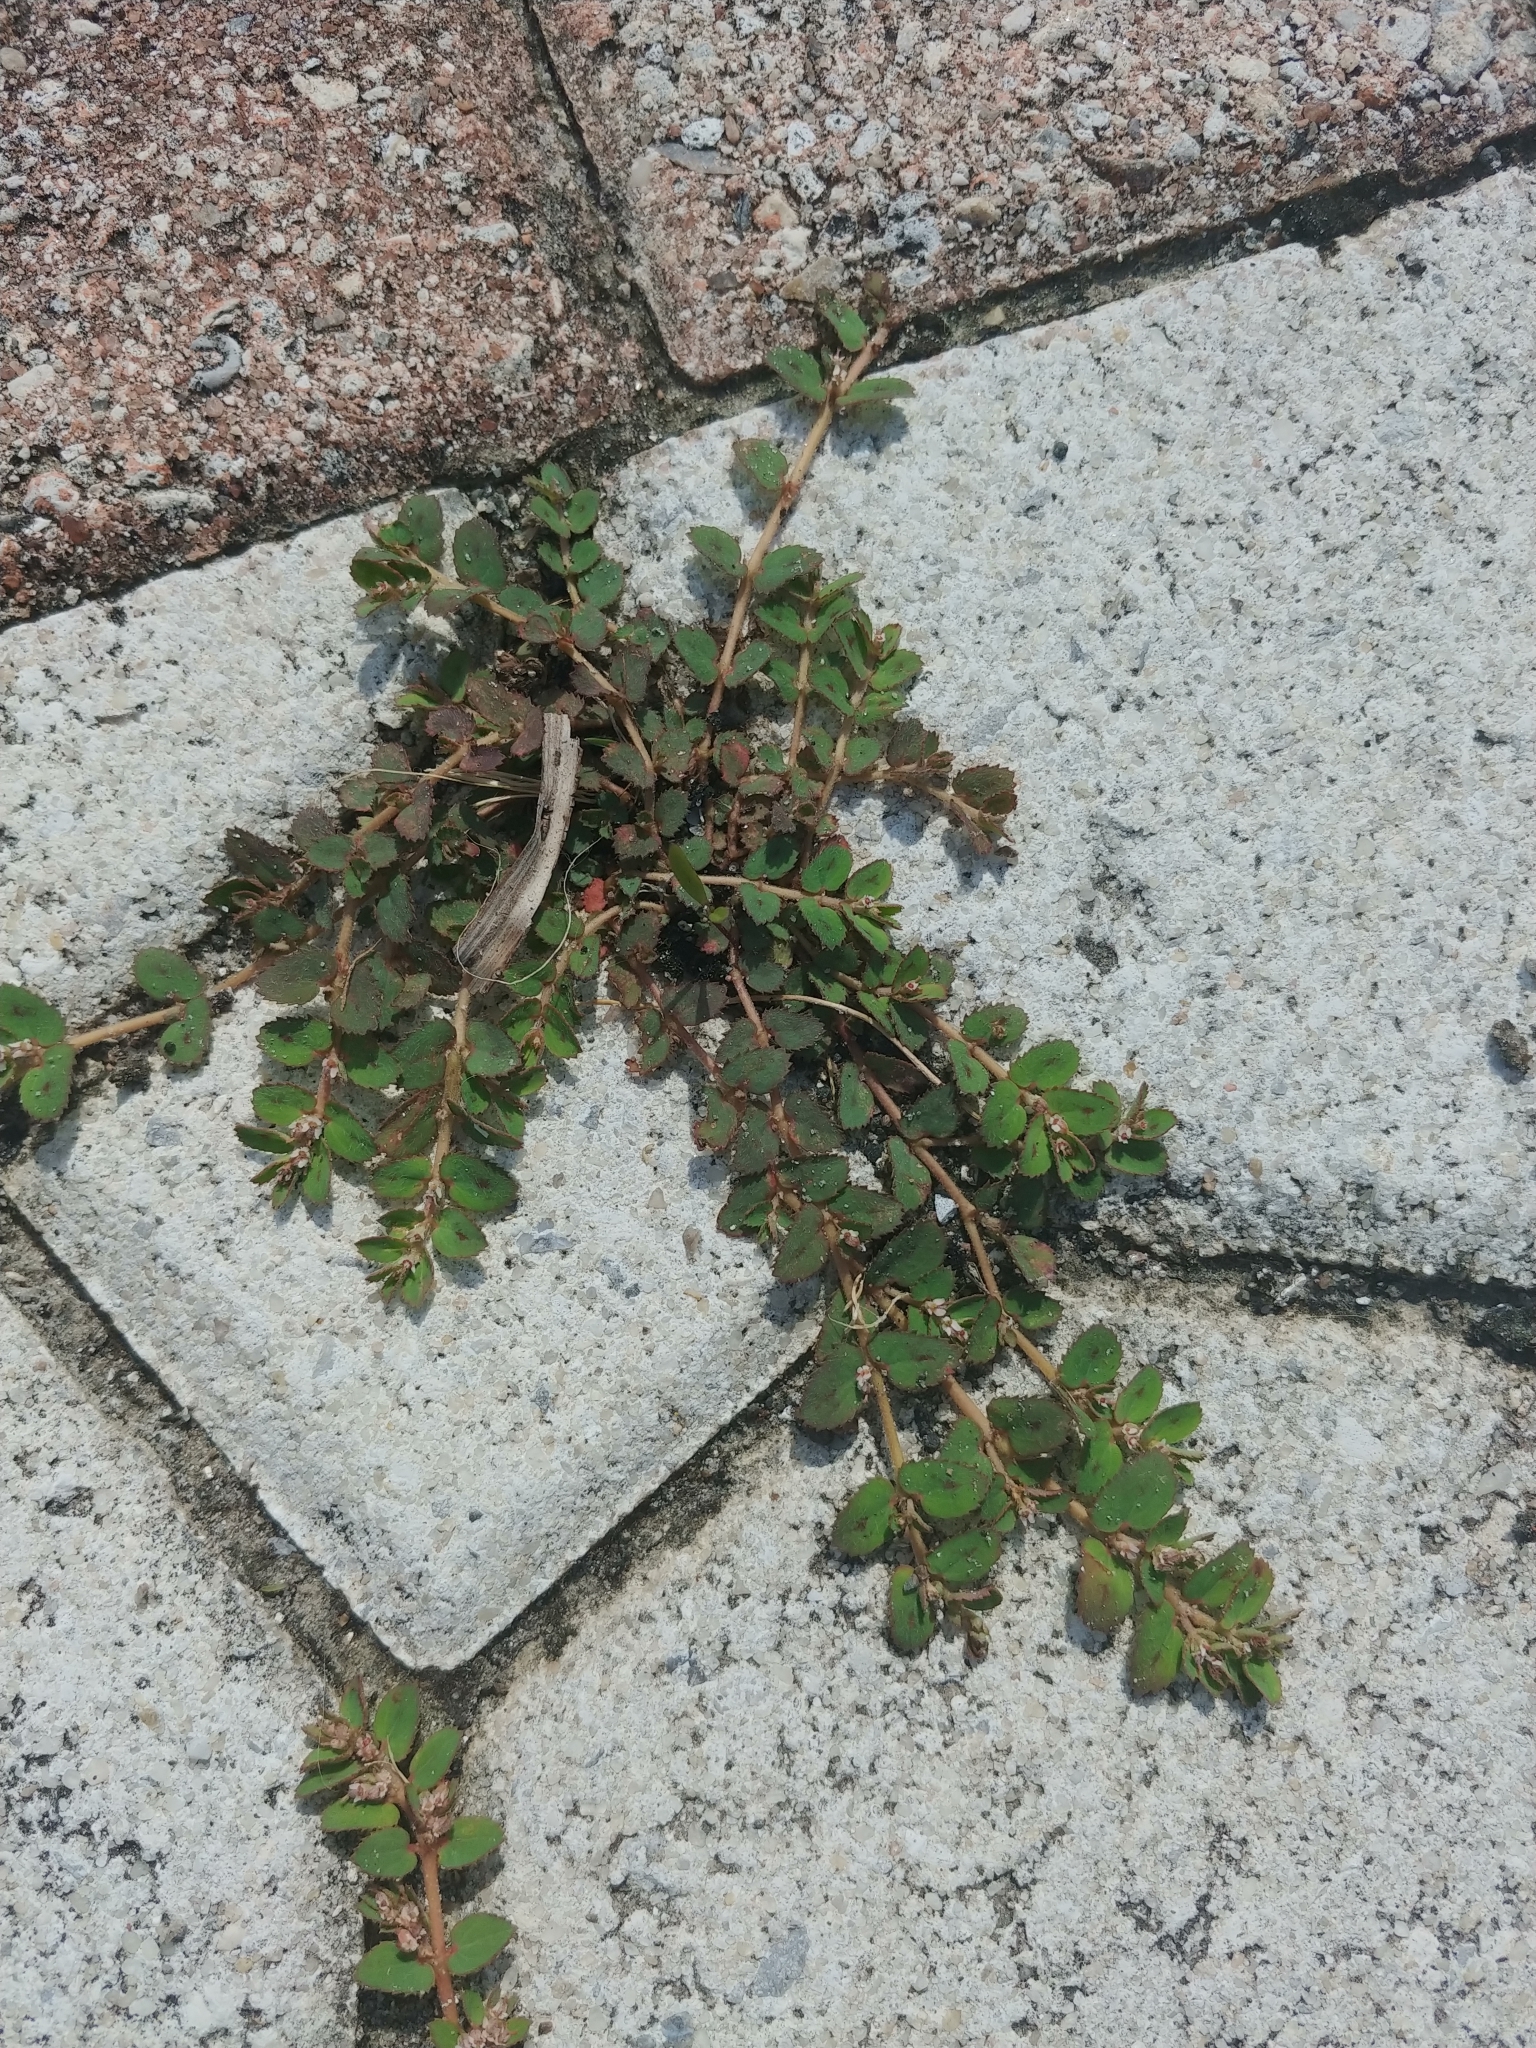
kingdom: Plantae
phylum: Tracheophyta
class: Magnoliopsida
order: Malpighiales
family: Euphorbiaceae
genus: Euphorbia
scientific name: Euphorbia thymifolia
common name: Gulf sandmat
